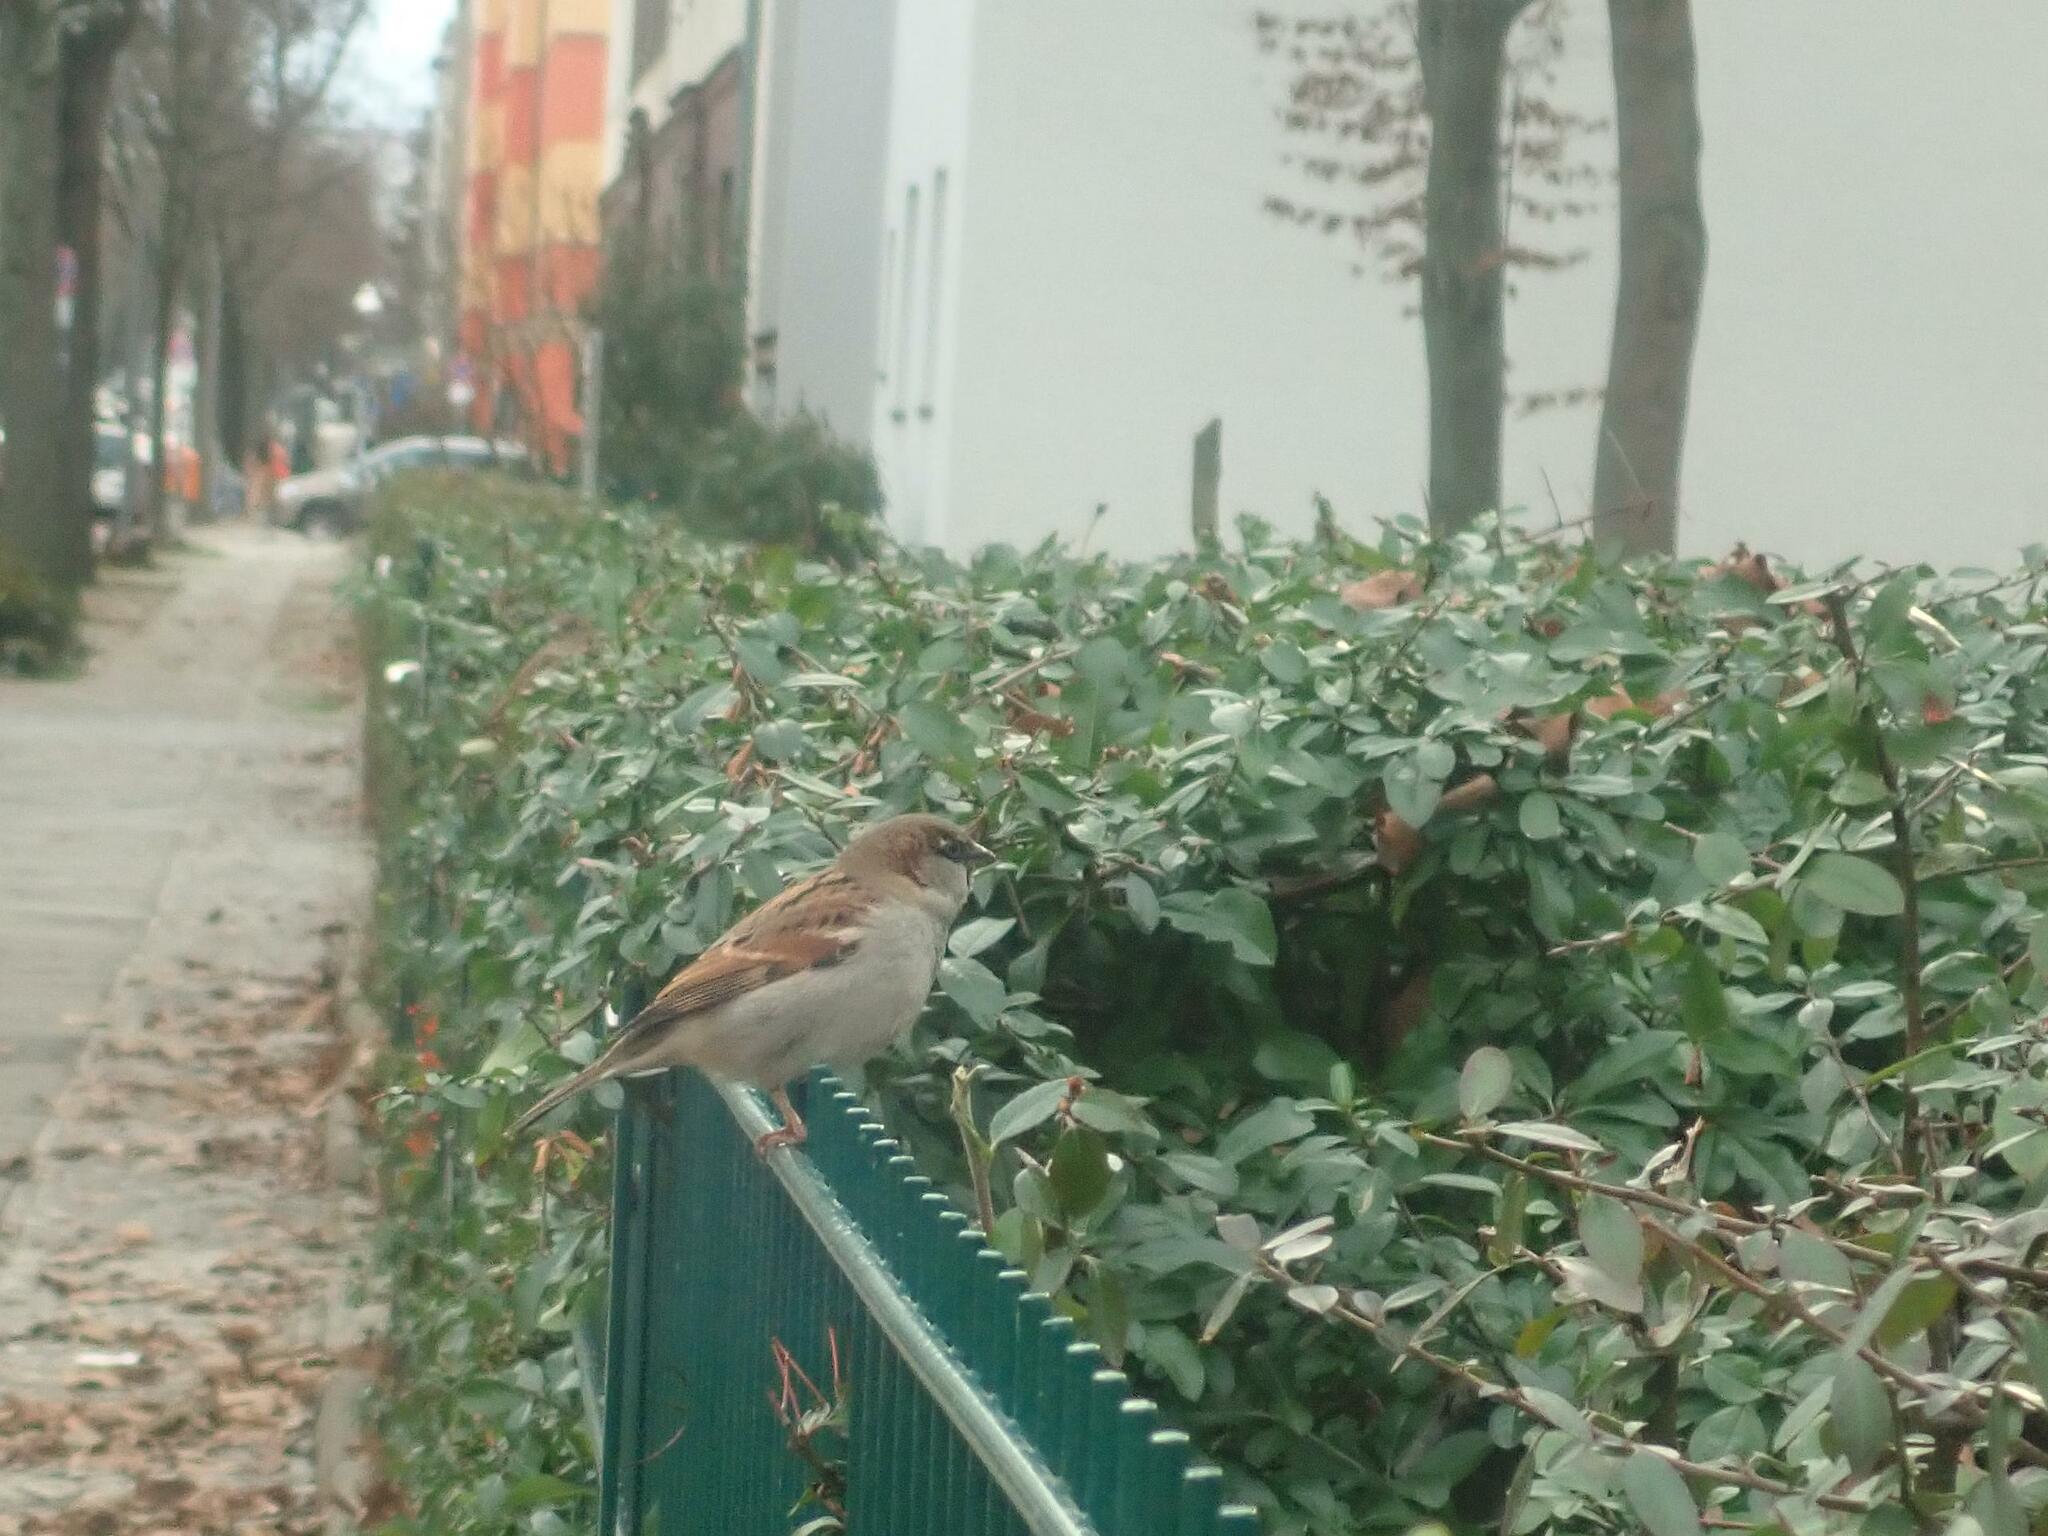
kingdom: Animalia
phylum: Chordata
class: Aves
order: Passeriformes
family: Passeridae
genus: Passer
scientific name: Passer domesticus
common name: House sparrow
